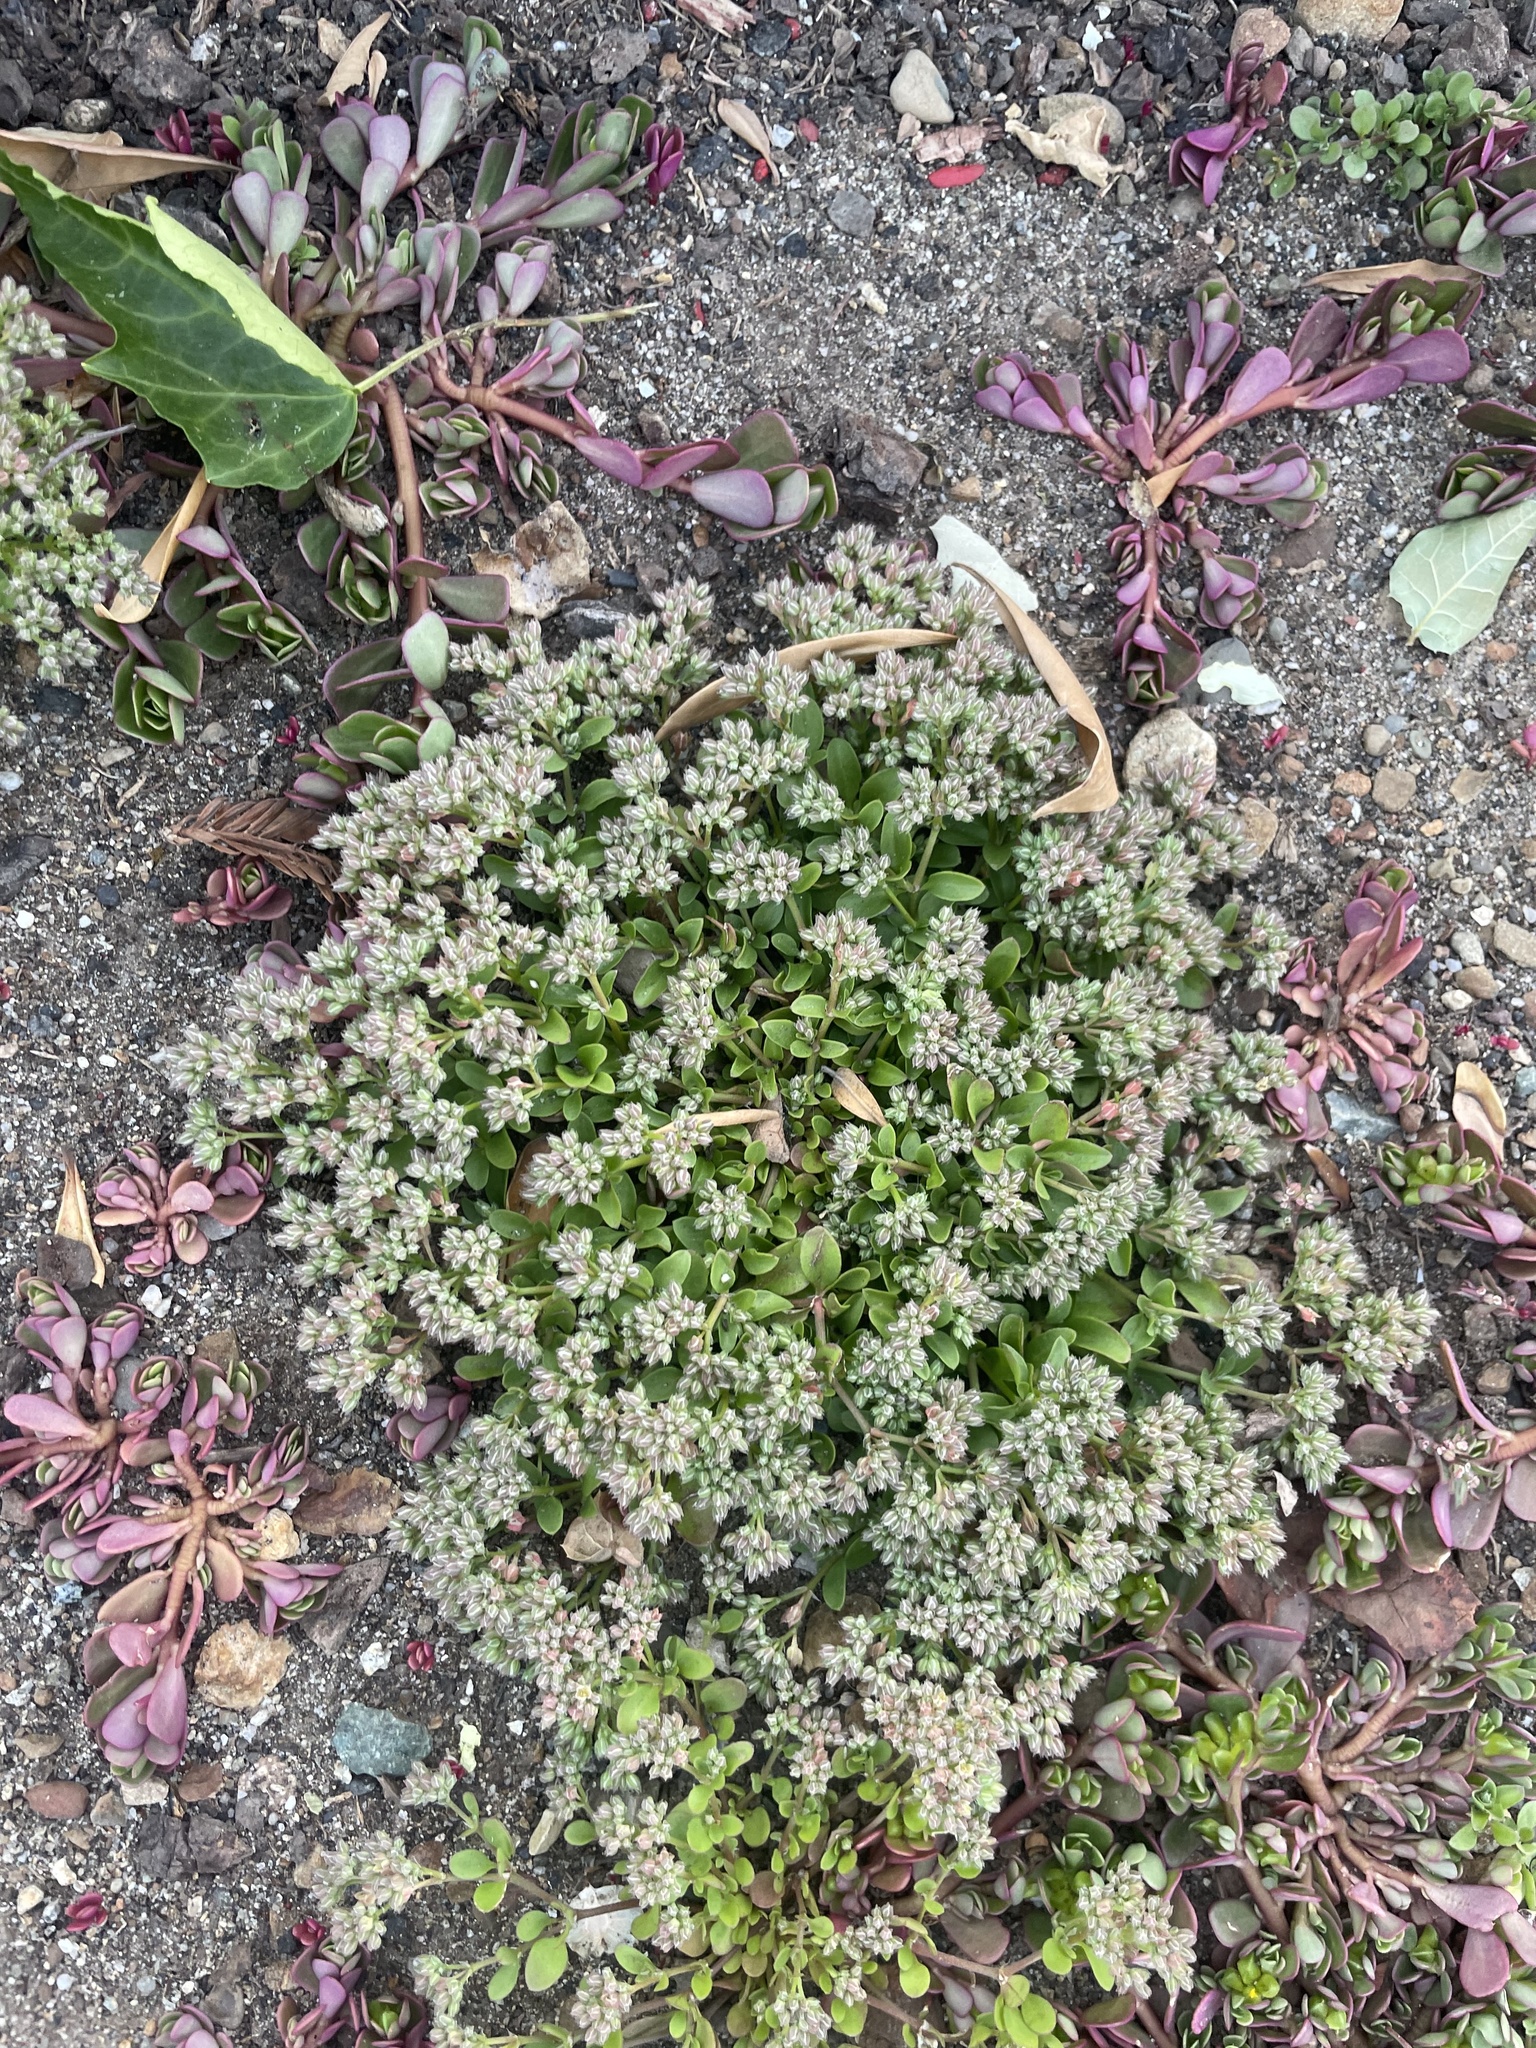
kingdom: Plantae
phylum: Tracheophyta
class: Magnoliopsida
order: Caryophyllales
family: Caryophyllaceae
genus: Polycarpon
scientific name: Polycarpon tetraphyllum
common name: Four-leaved all-seed
